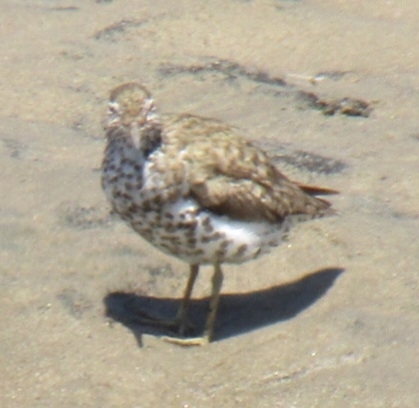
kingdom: Animalia
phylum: Chordata
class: Aves
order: Charadriiformes
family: Scolopacidae
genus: Actitis
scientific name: Actitis macularius
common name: Spotted sandpiper
